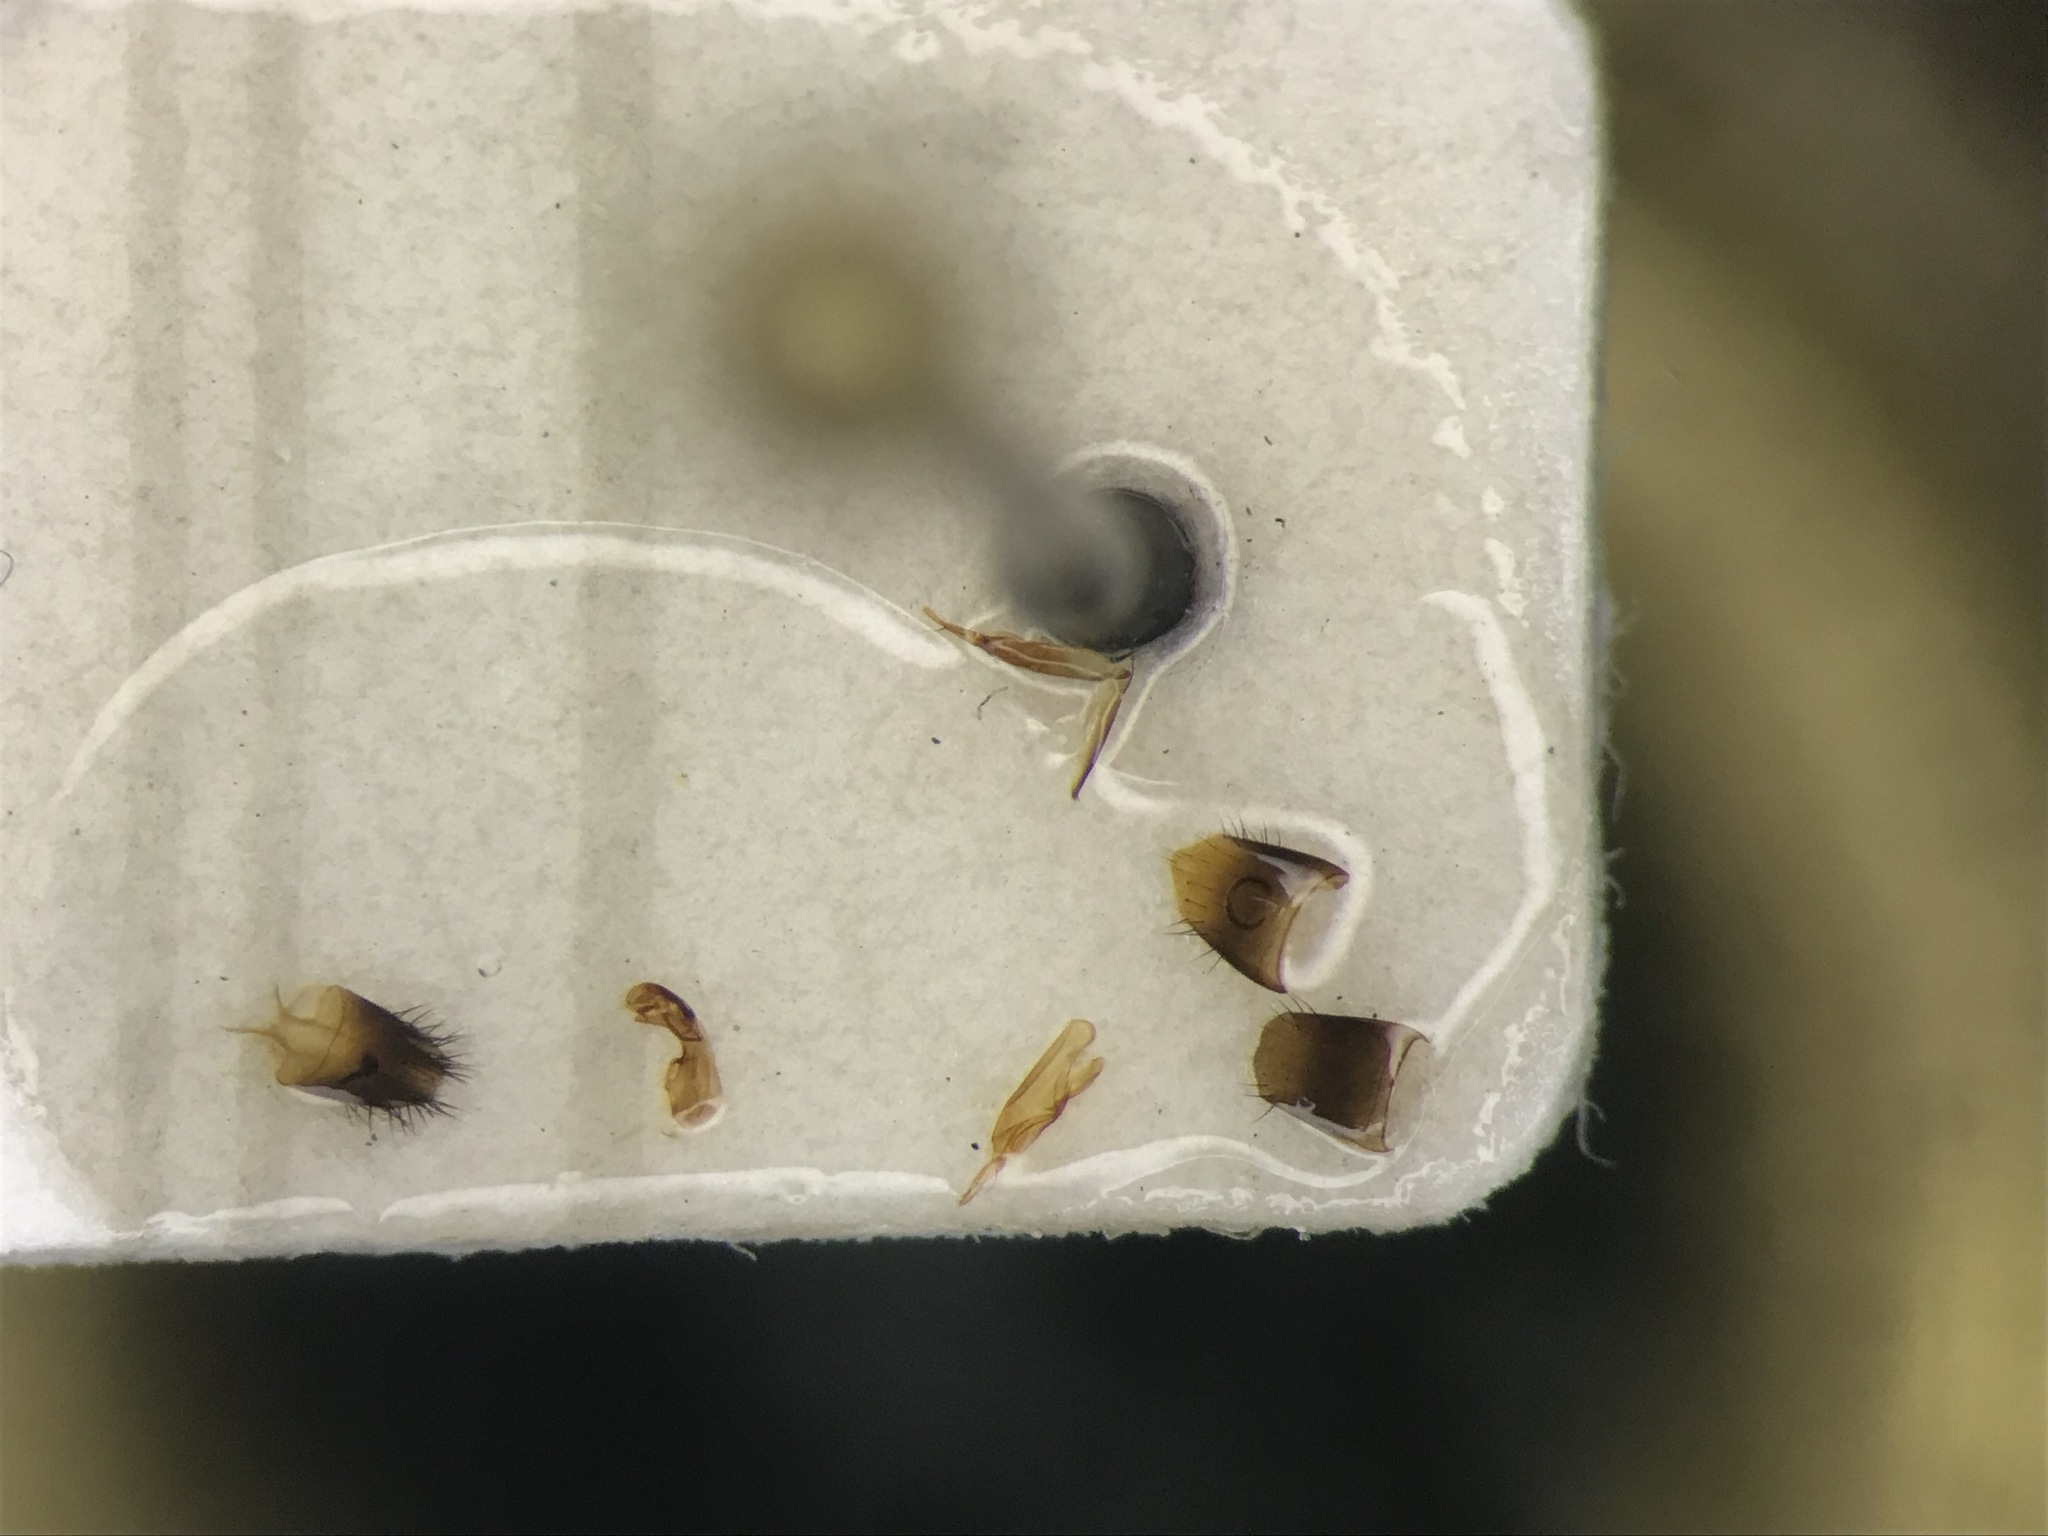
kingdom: Animalia
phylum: Arthropoda
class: Insecta
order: Coleoptera
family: Staphylinidae
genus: Oxypoda
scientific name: Oxypoda opaca
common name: Rove beetle
